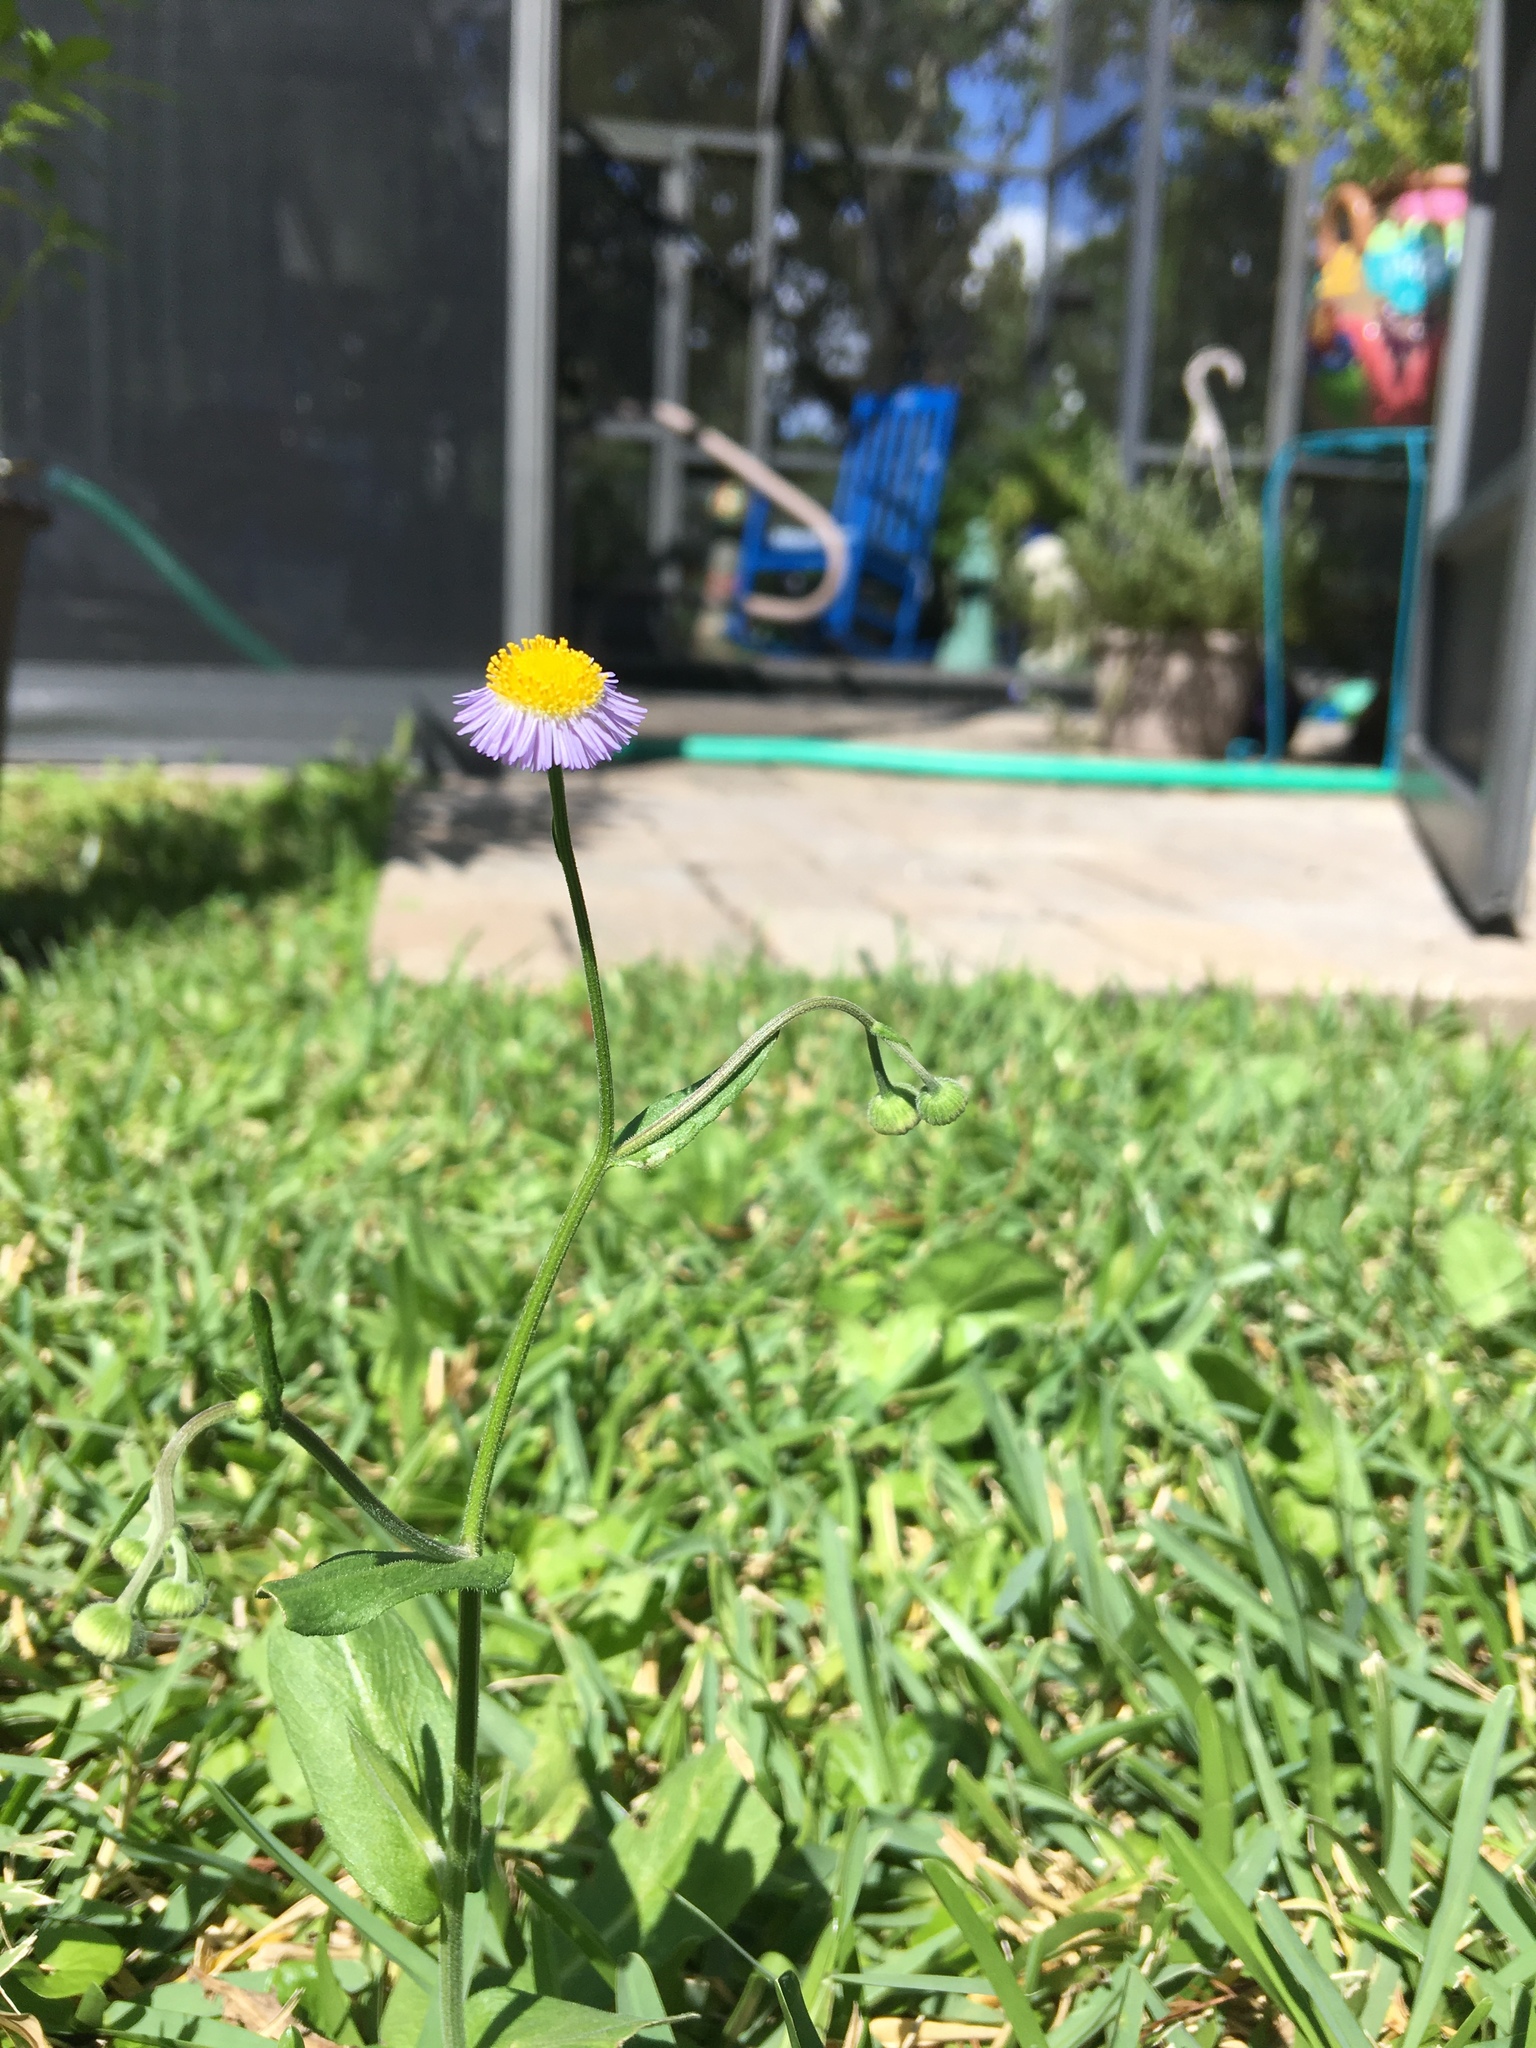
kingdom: Plantae
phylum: Tracheophyta
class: Magnoliopsida
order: Asterales
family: Asteraceae
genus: Erigeron
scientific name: Erigeron quercifolius
